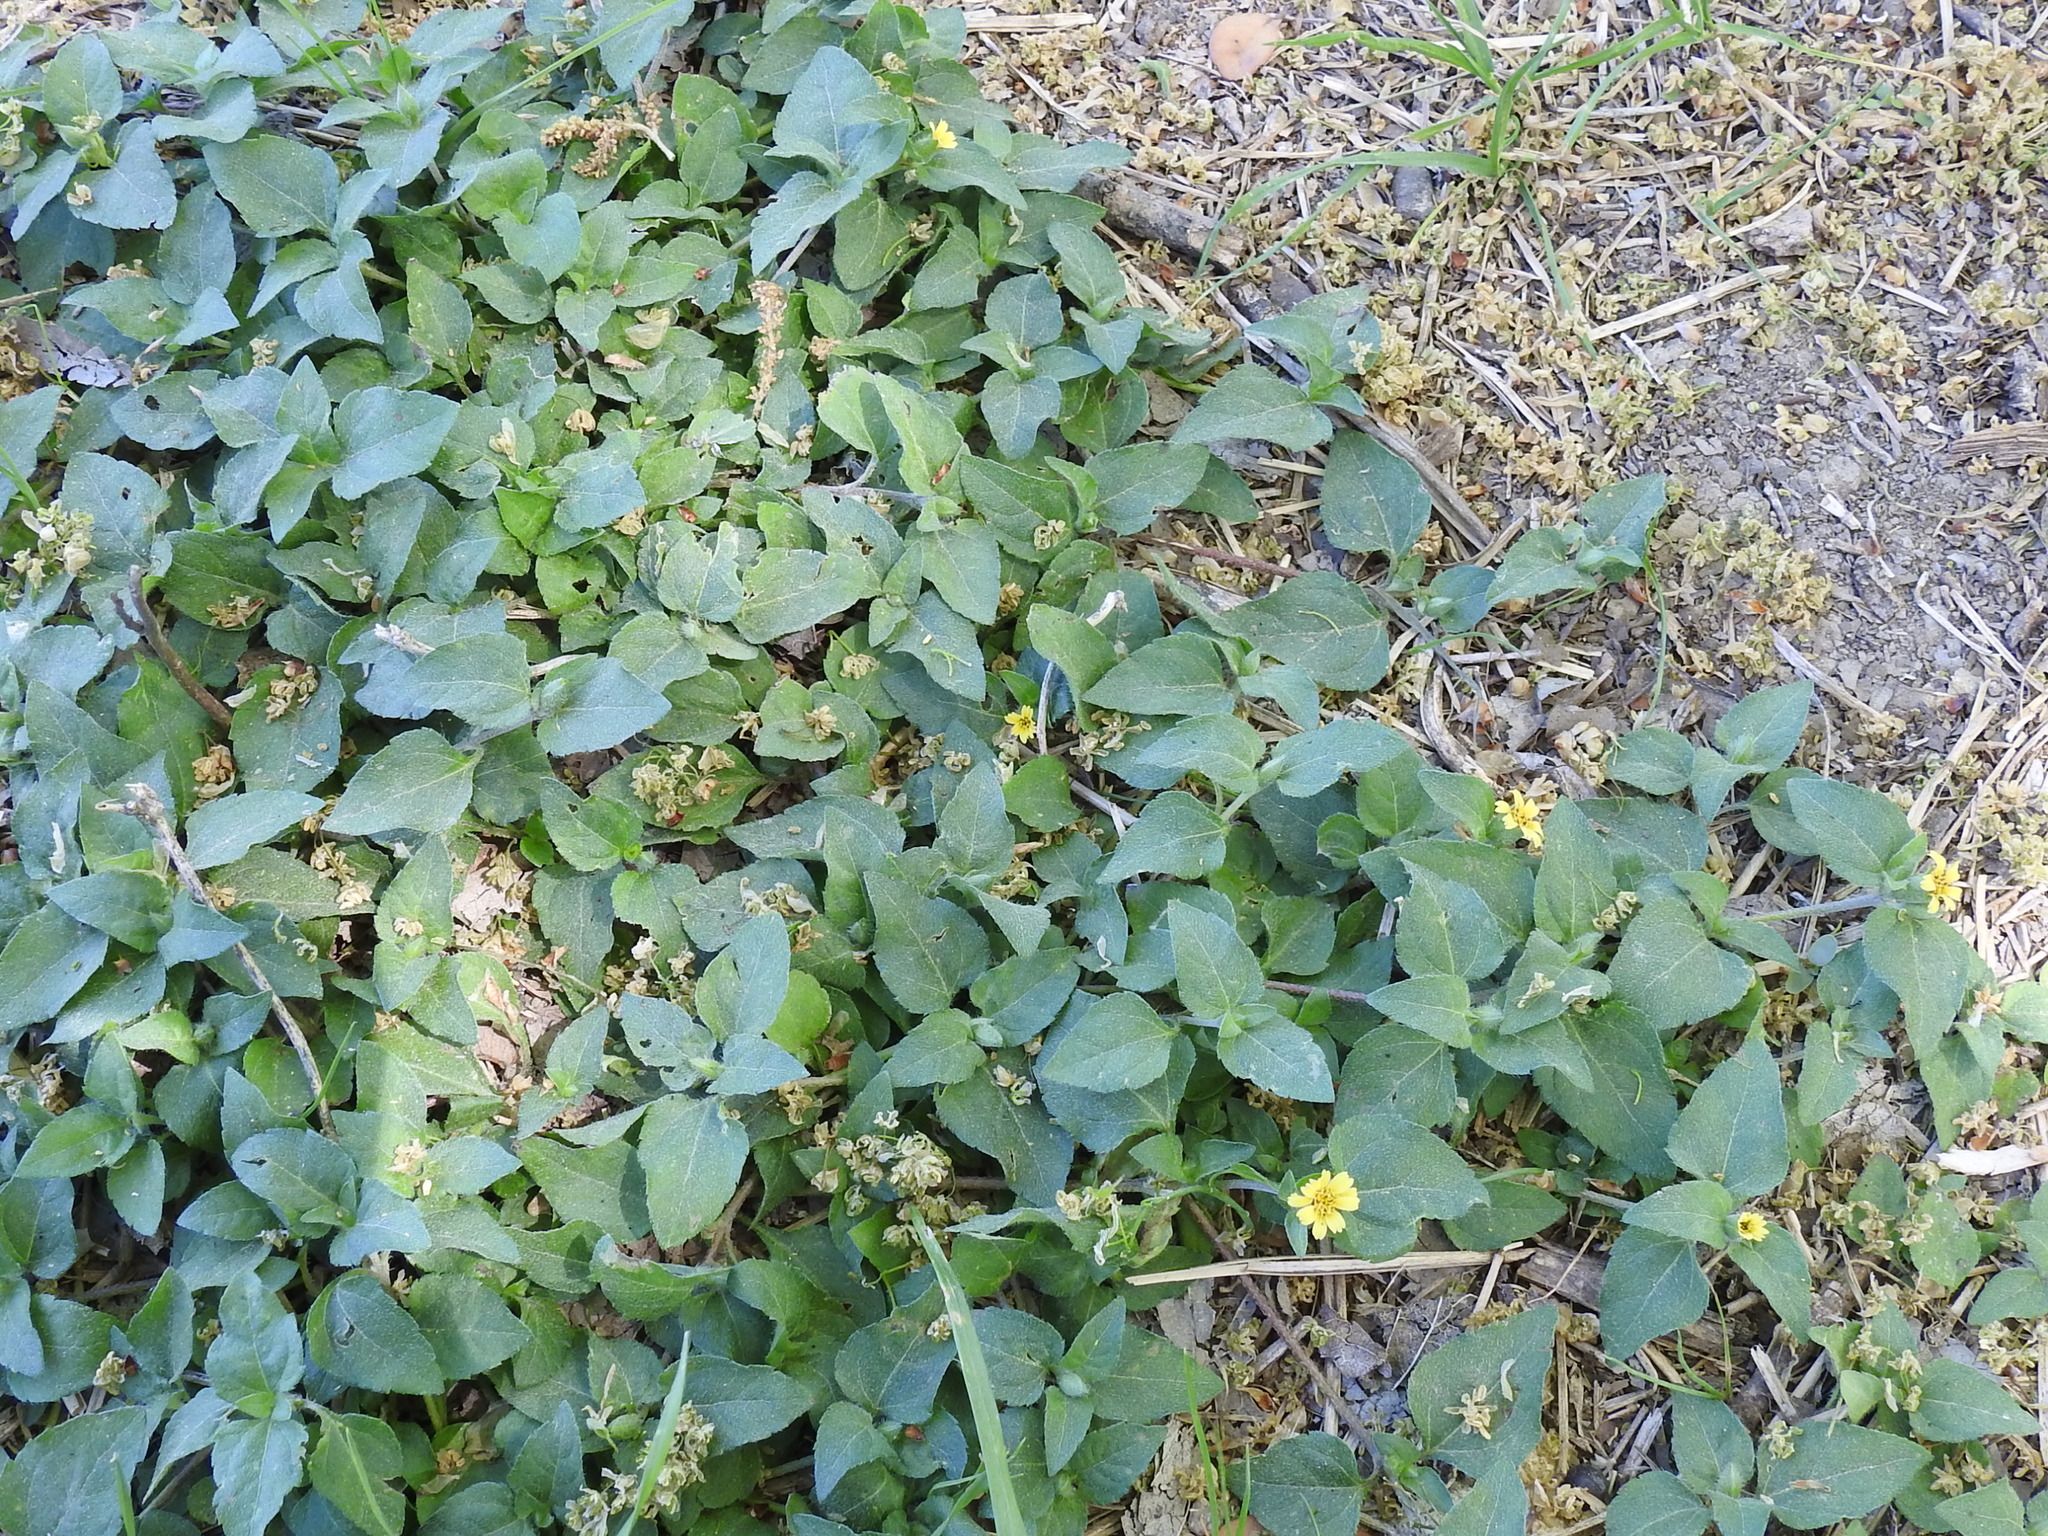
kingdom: Plantae
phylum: Tracheophyta
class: Magnoliopsida
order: Asterales
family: Asteraceae
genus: Calyptocarpus
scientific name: Calyptocarpus vialis
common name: Straggler daisy
